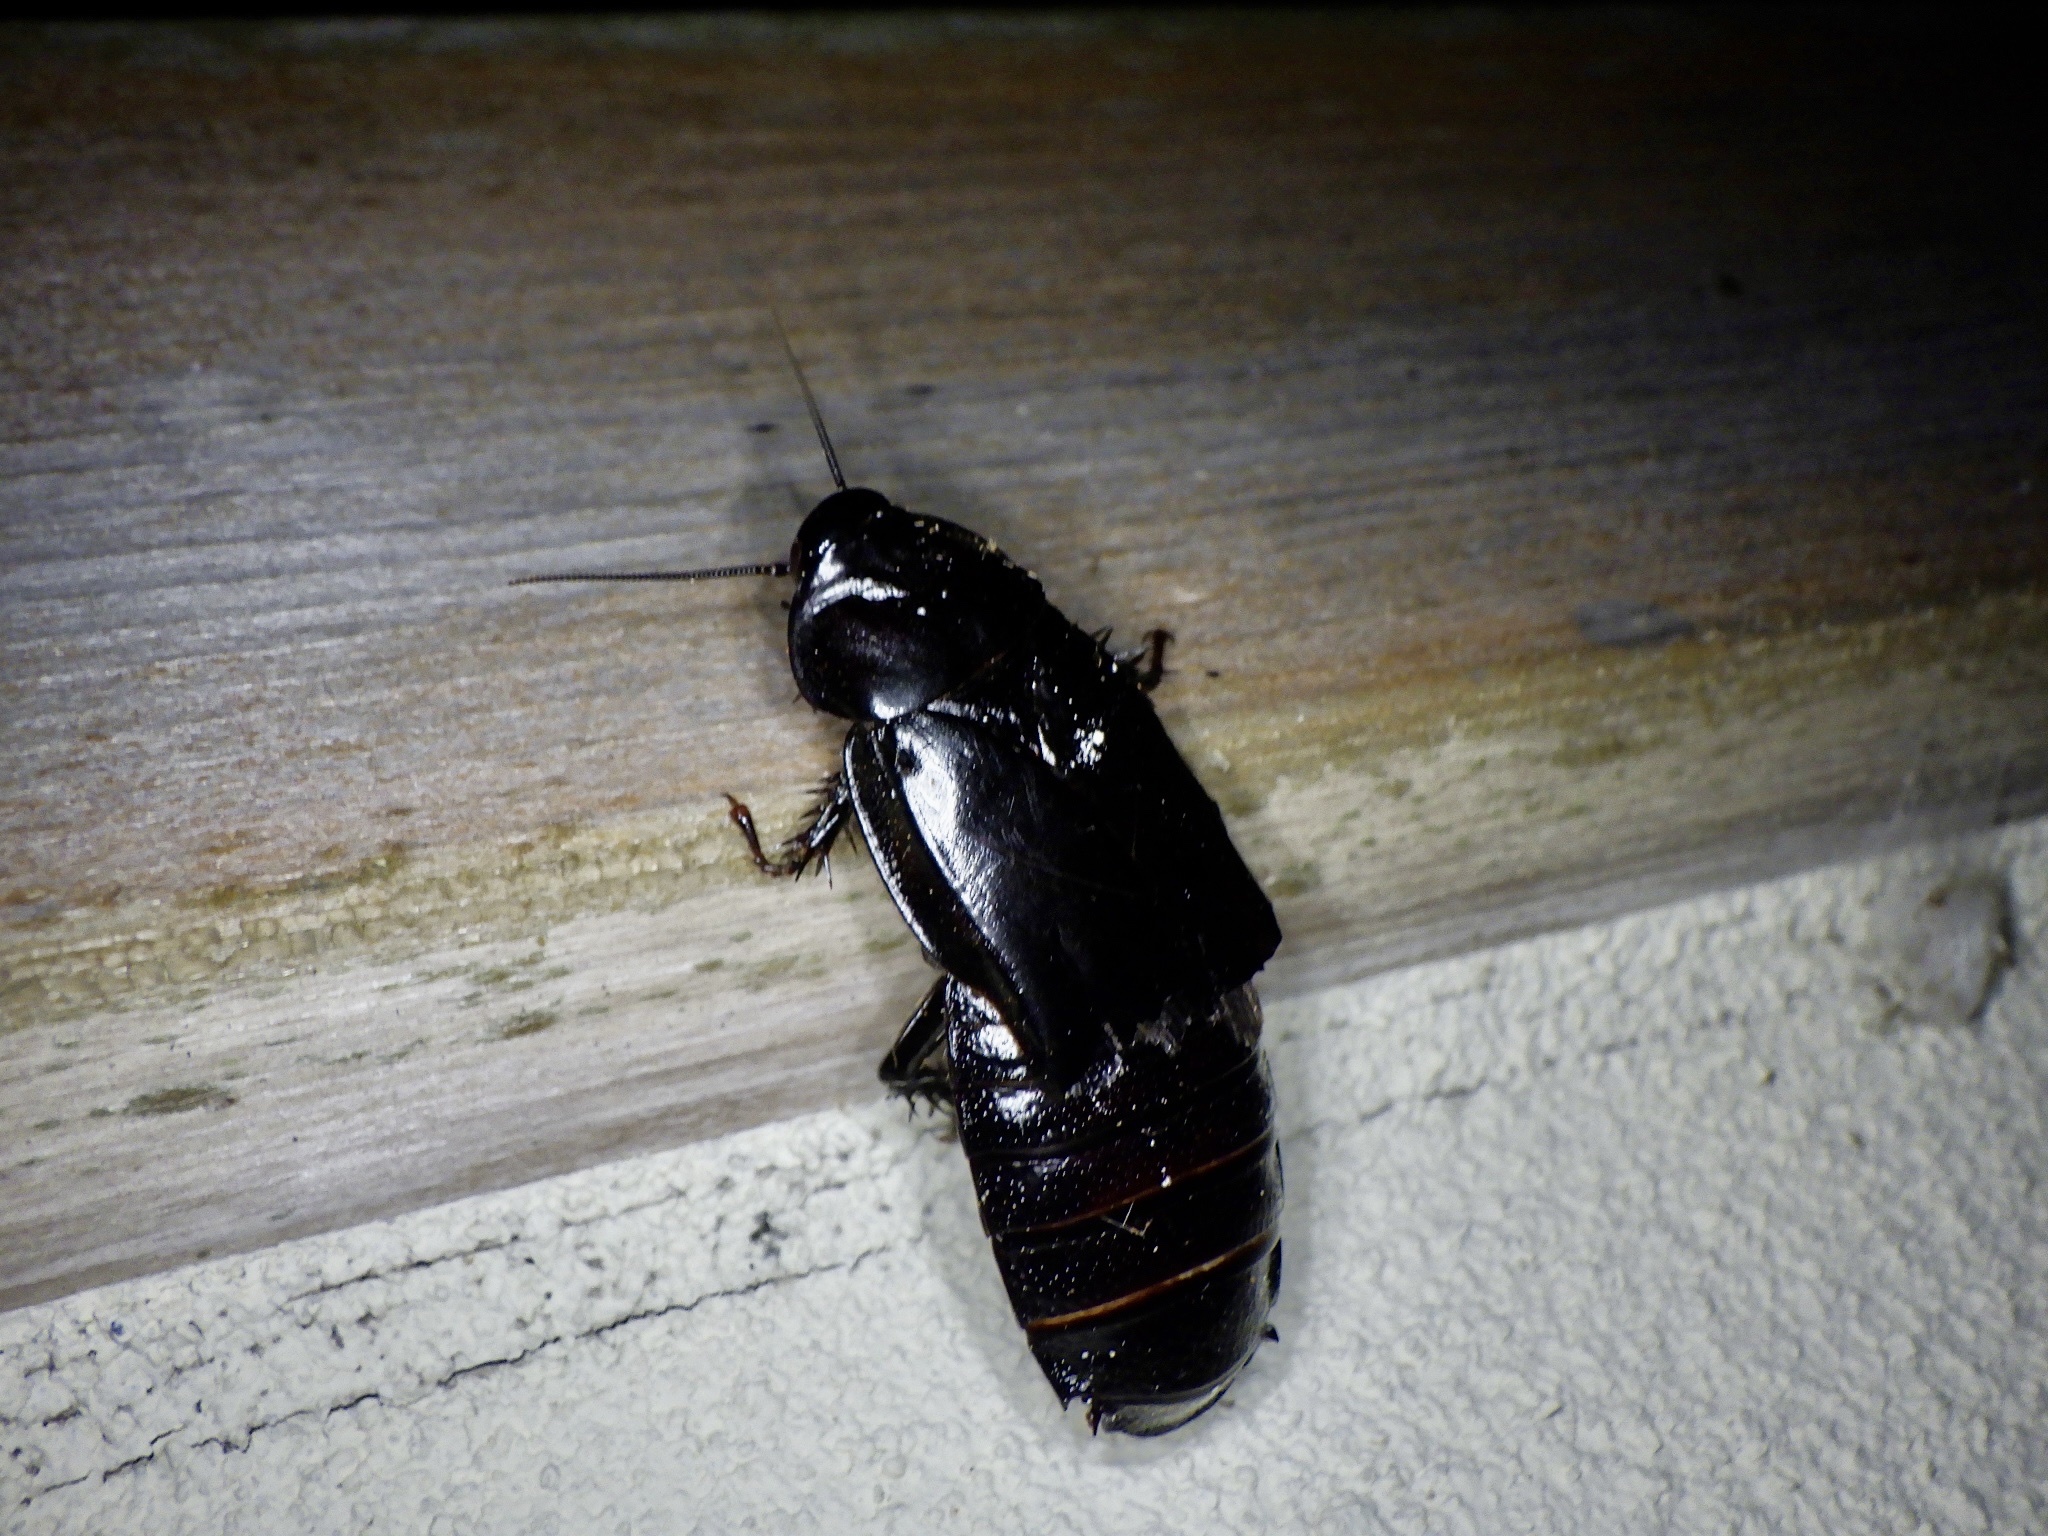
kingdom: Animalia
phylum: Arthropoda
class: Insecta
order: Blattodea
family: Blaberidae
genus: Panesthia
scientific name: Panesthia angustipennis
